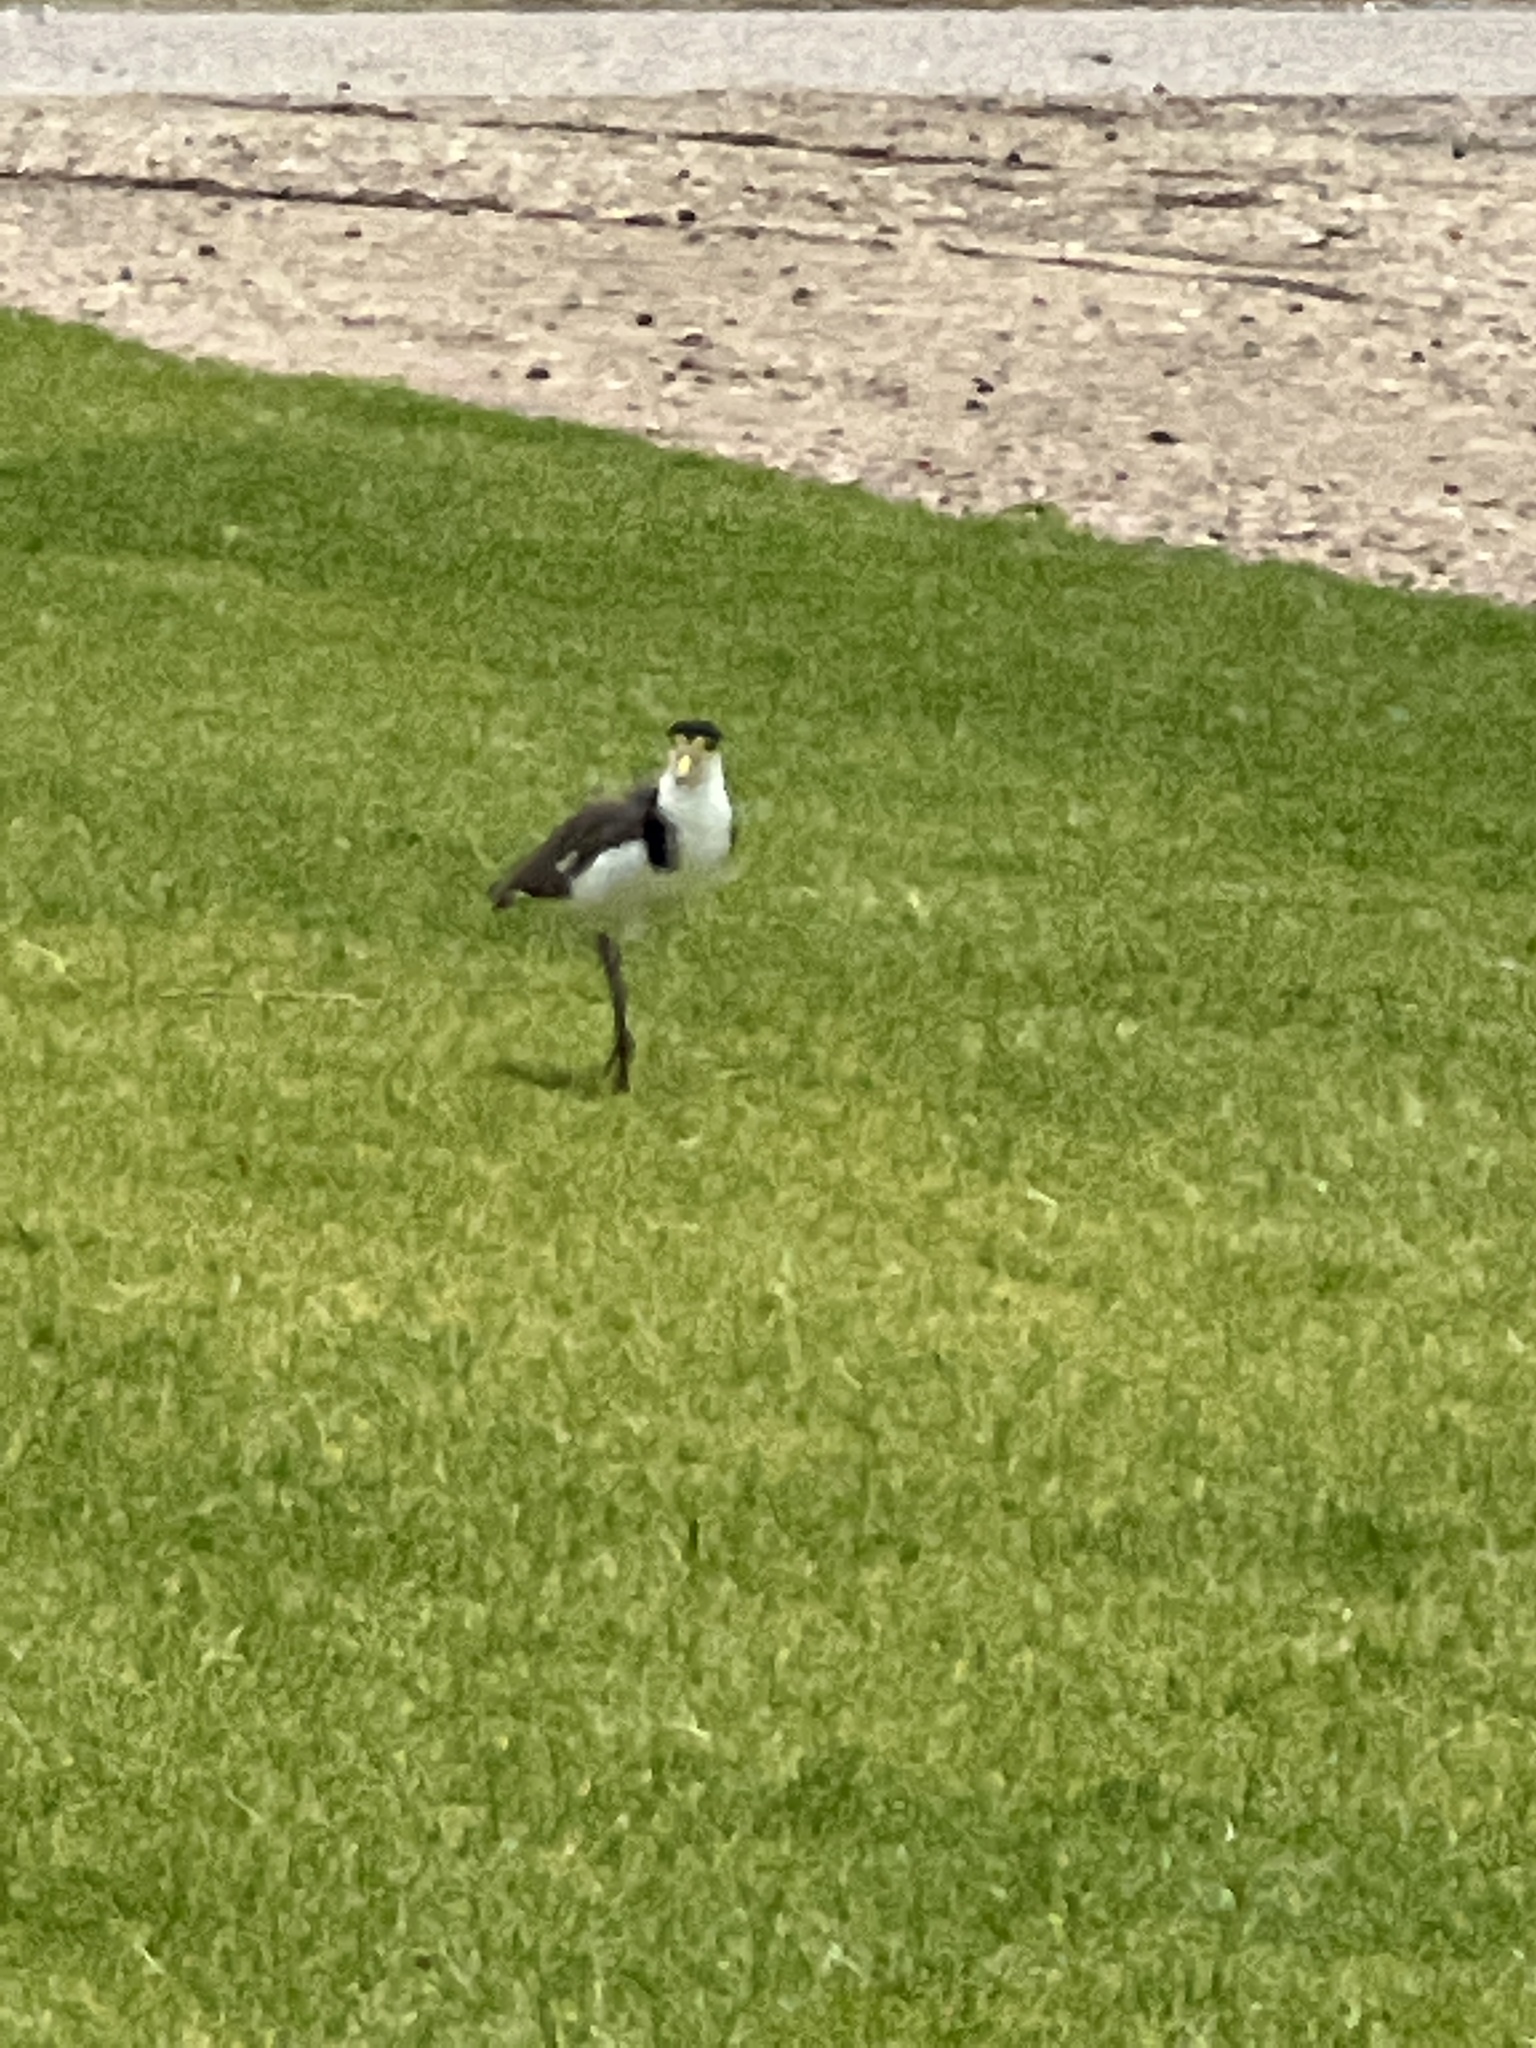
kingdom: Animalia
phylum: Chordata
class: Aves
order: Charadriiformes
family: Charadriidae
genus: Vanellus
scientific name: Vanellus miles
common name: Masked lapwing
